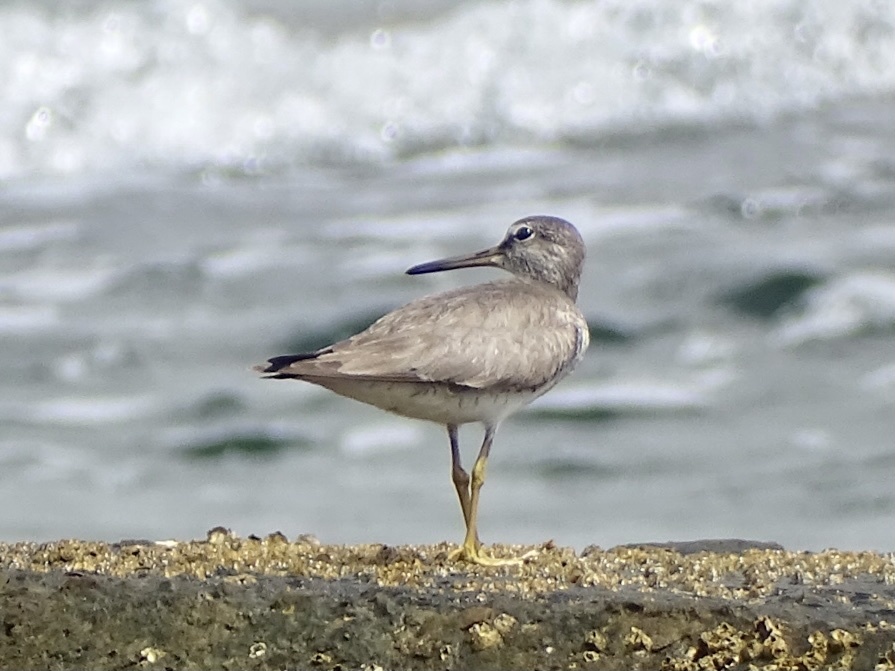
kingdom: Animalia
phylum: Chordata
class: Aves
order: Charadriiformes
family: Scolopacidae
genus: Tringa
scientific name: Tringa brevipes
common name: Grey-tailed tattler
